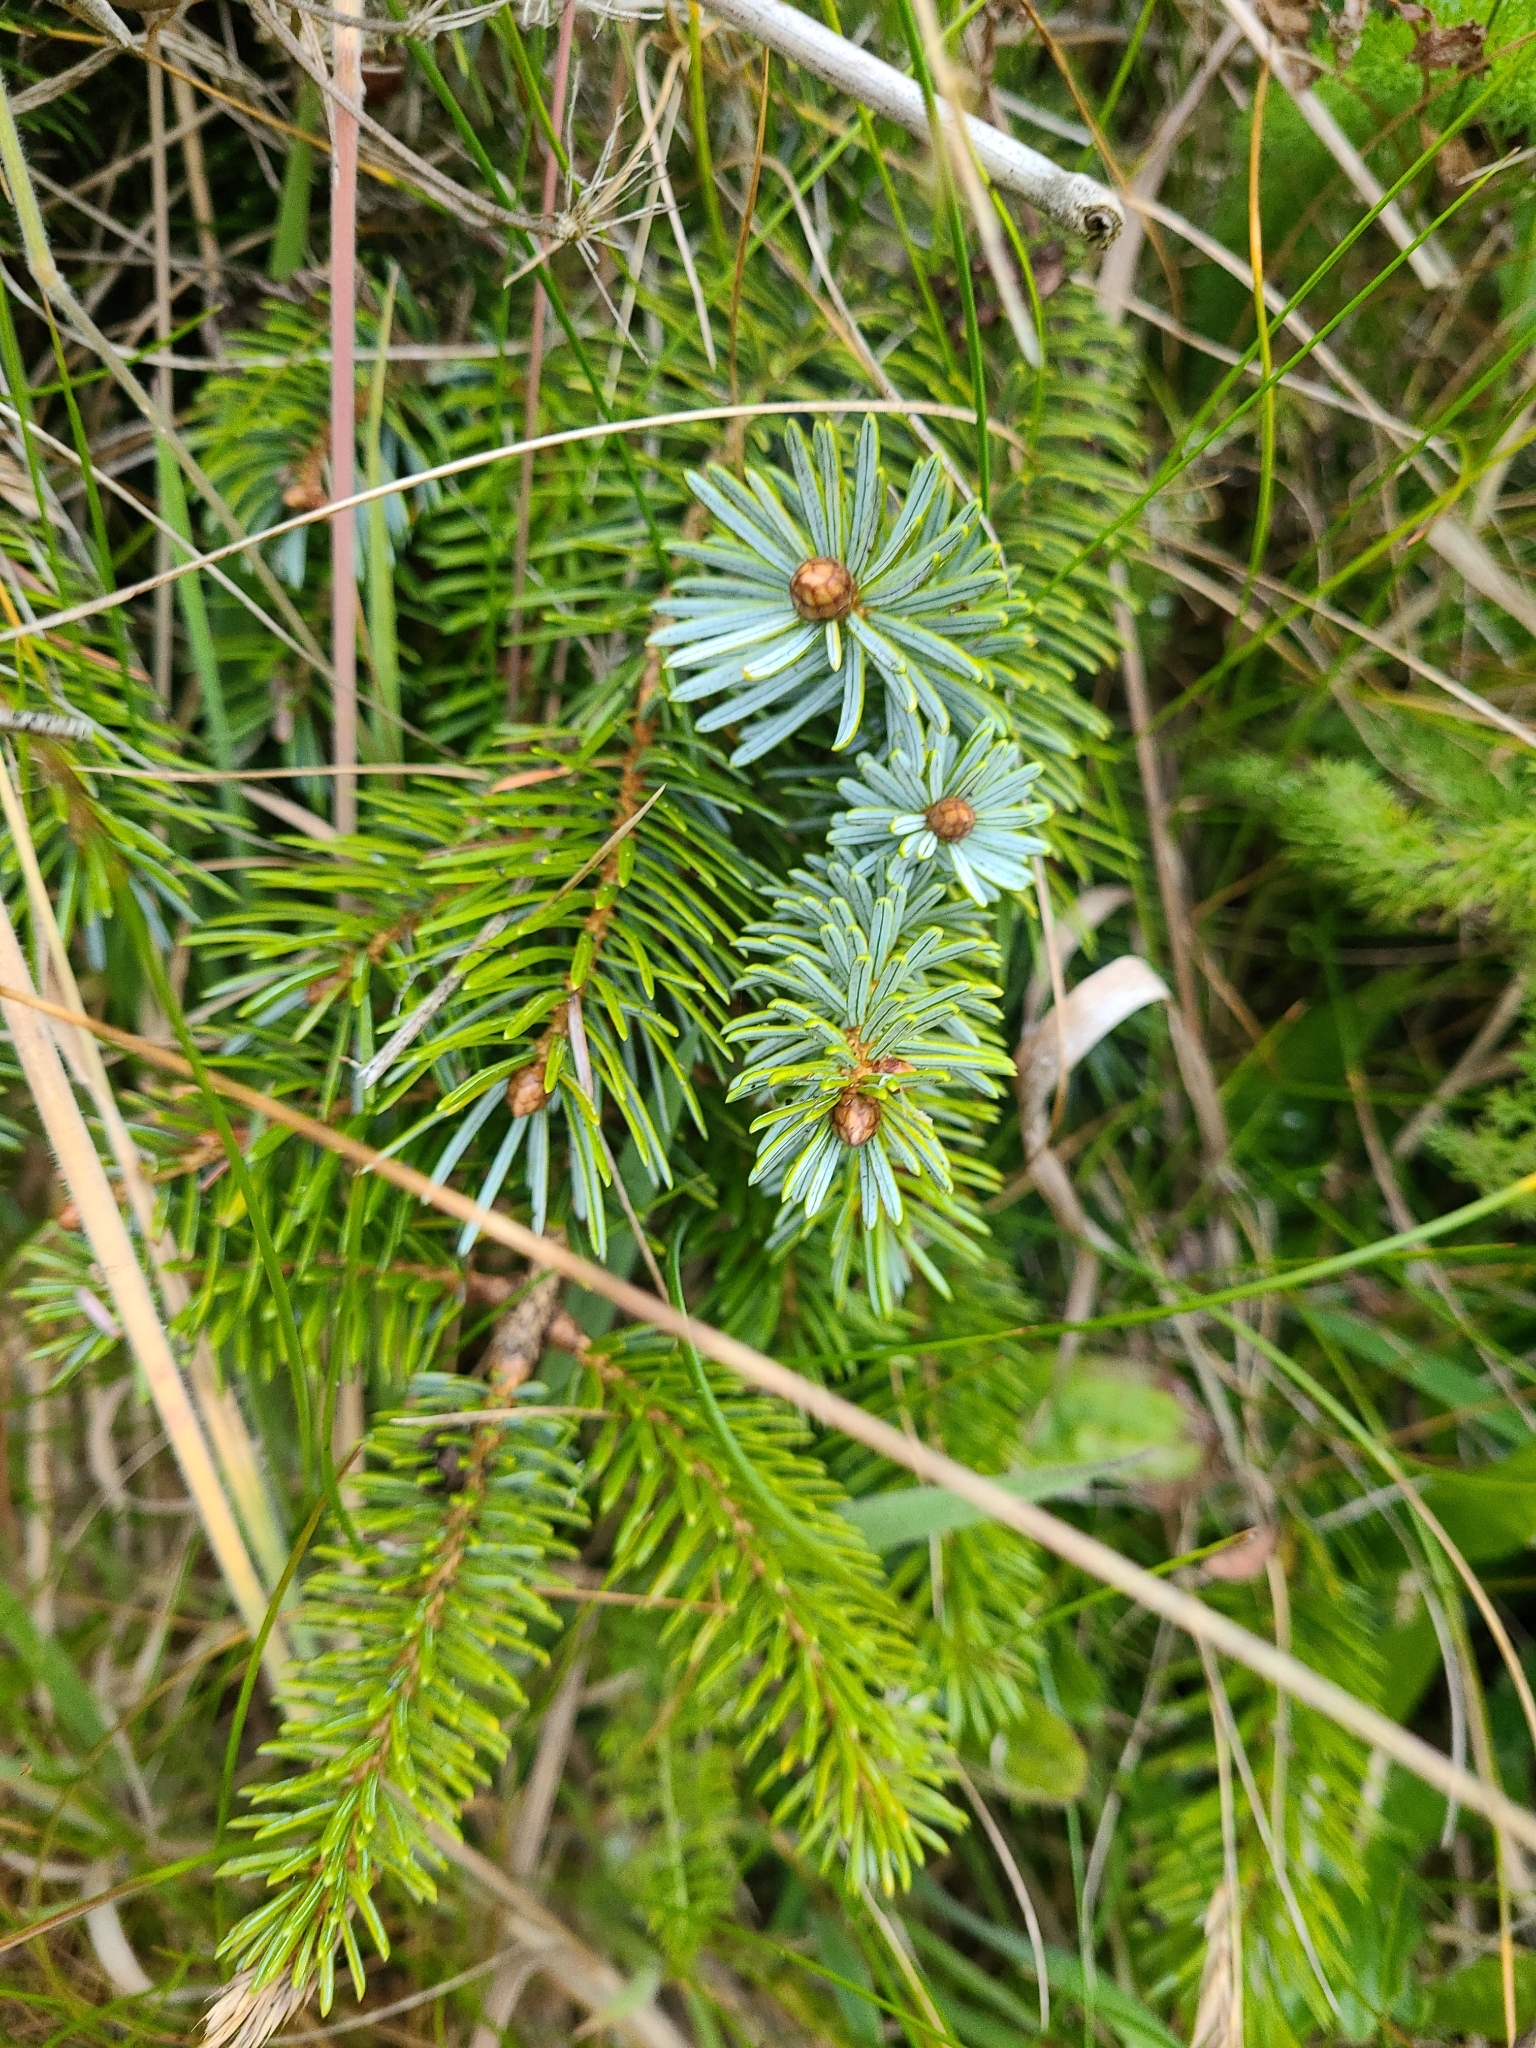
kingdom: Plantae
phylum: Tracheophyta
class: Pinopsida
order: Pinales
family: Pinaceae
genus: Picea
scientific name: Picea sitchensis
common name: Sitka spruce
